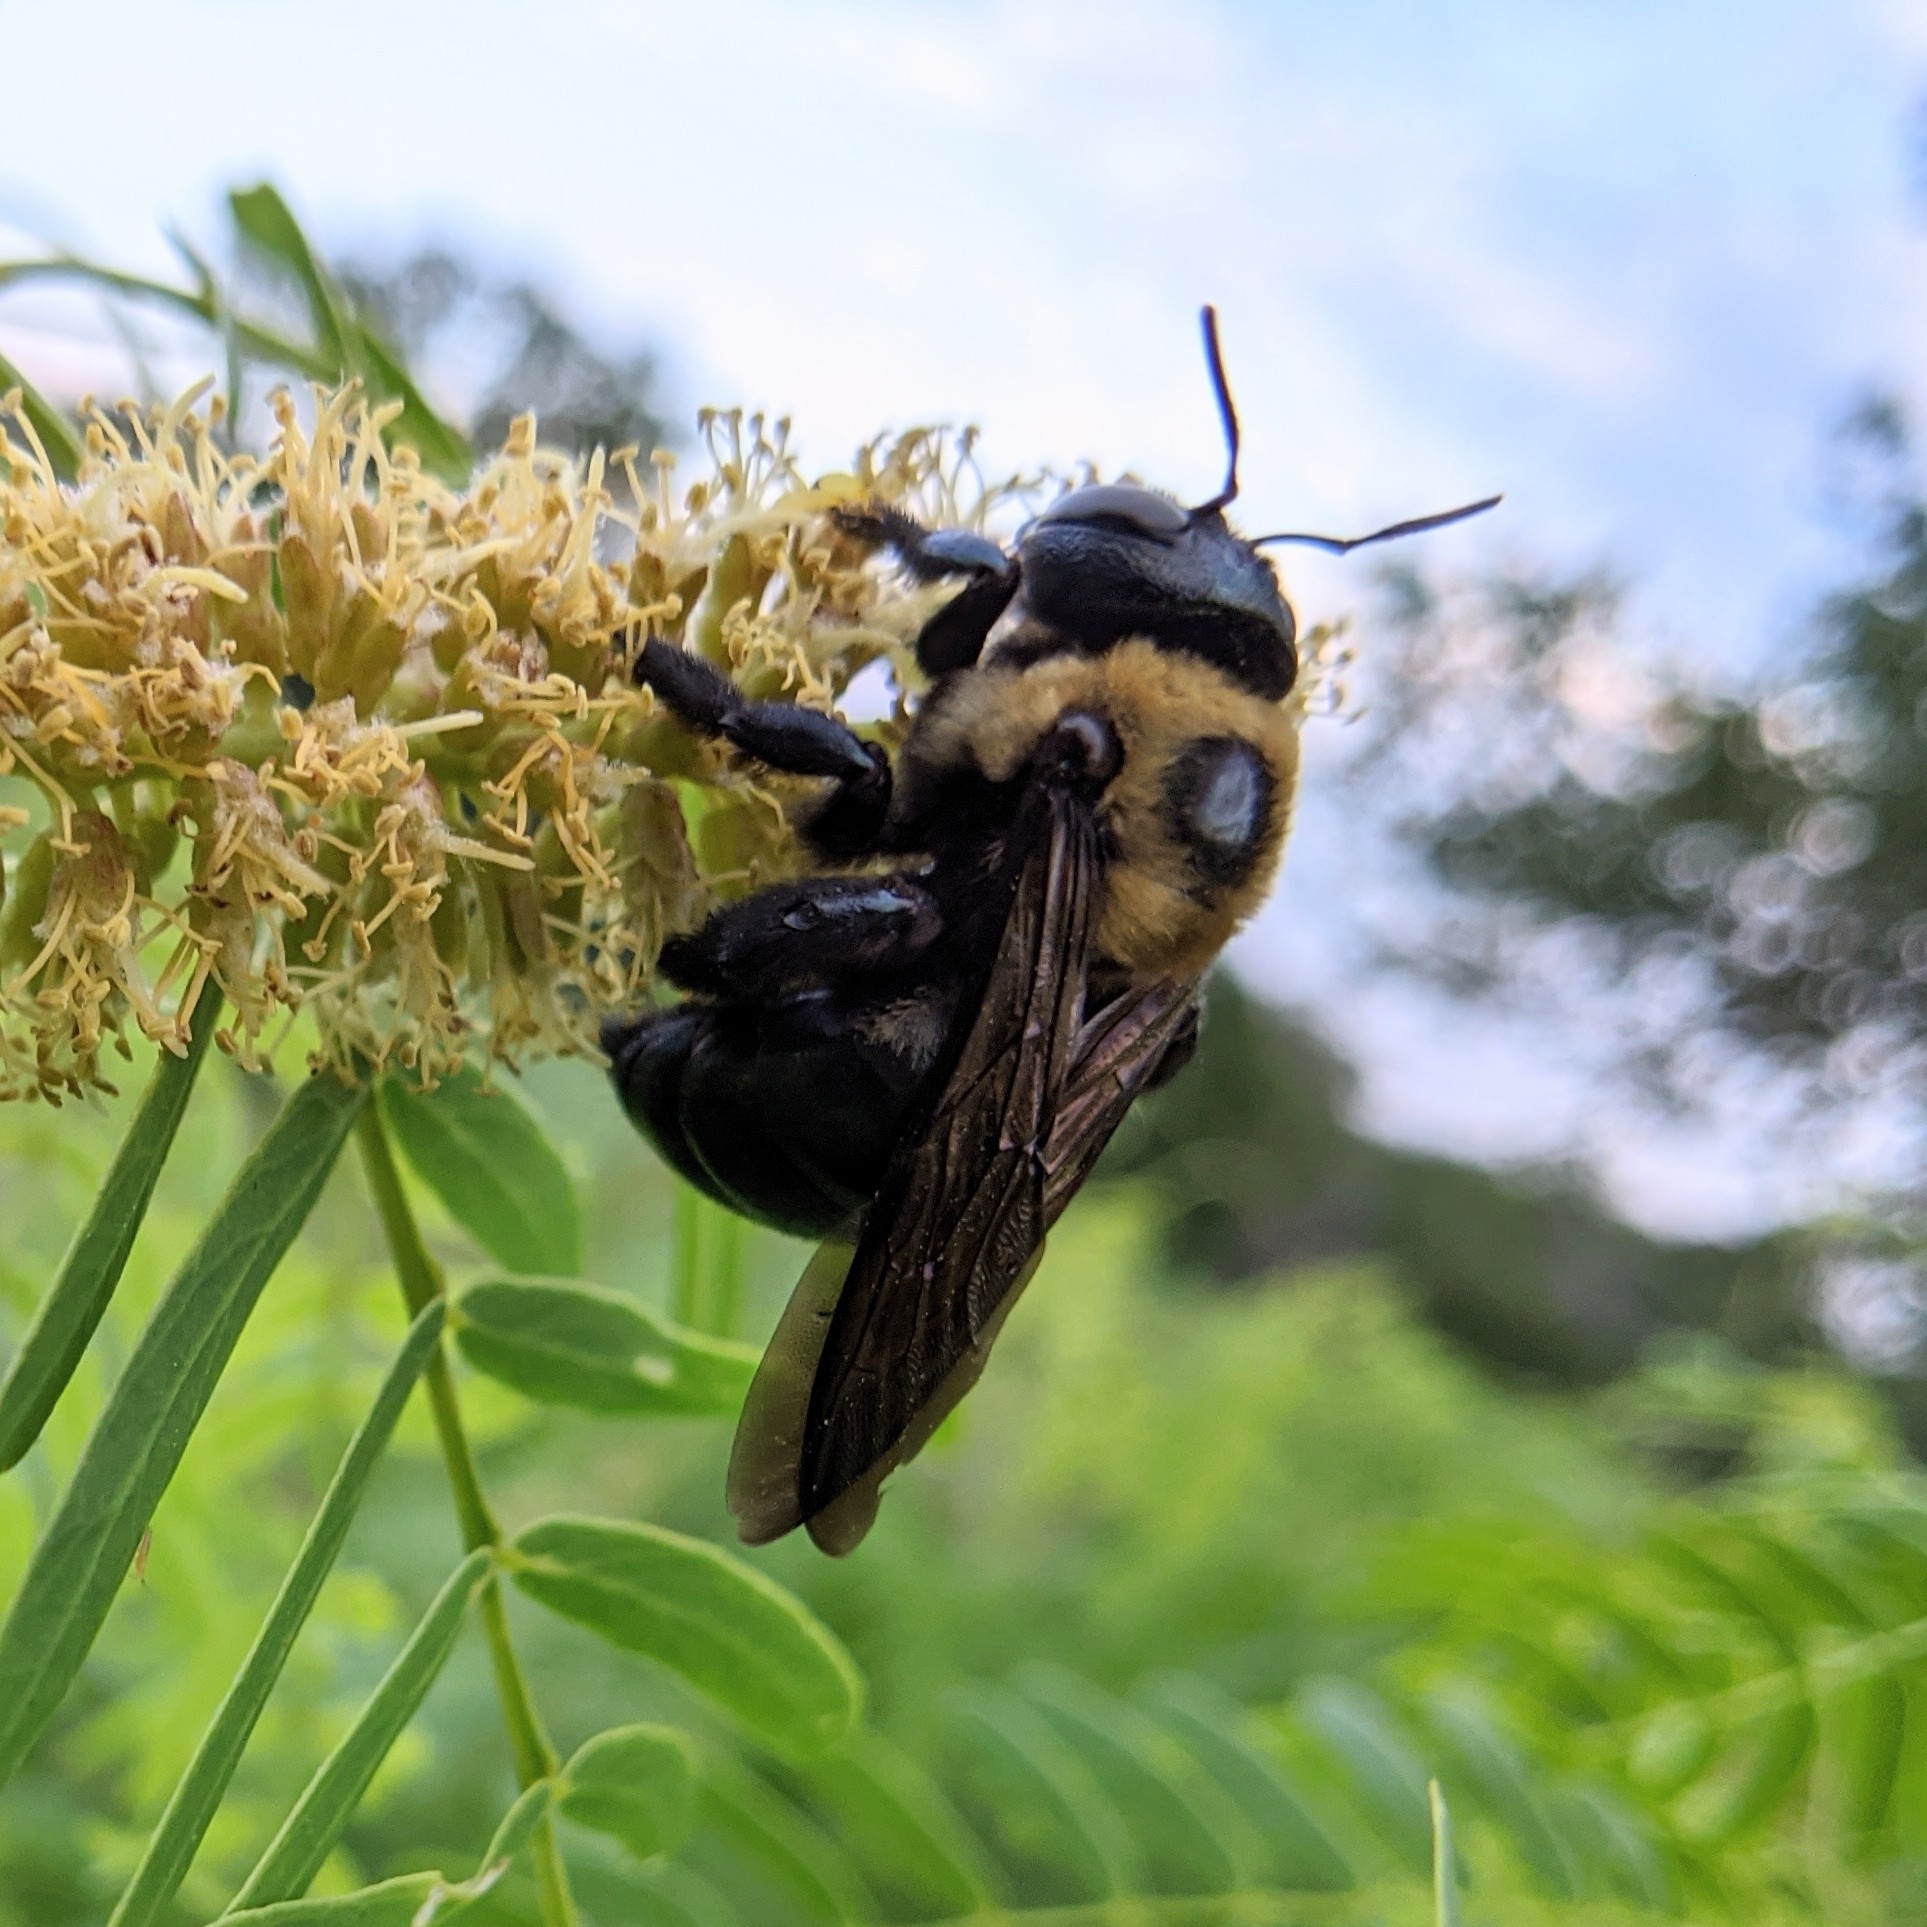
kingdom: Animalia
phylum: Arthropoda
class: Insecta
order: Hymenoptera
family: Apidae
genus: Xylocopa
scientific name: Xylocopa virginica
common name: Carpenter bee
